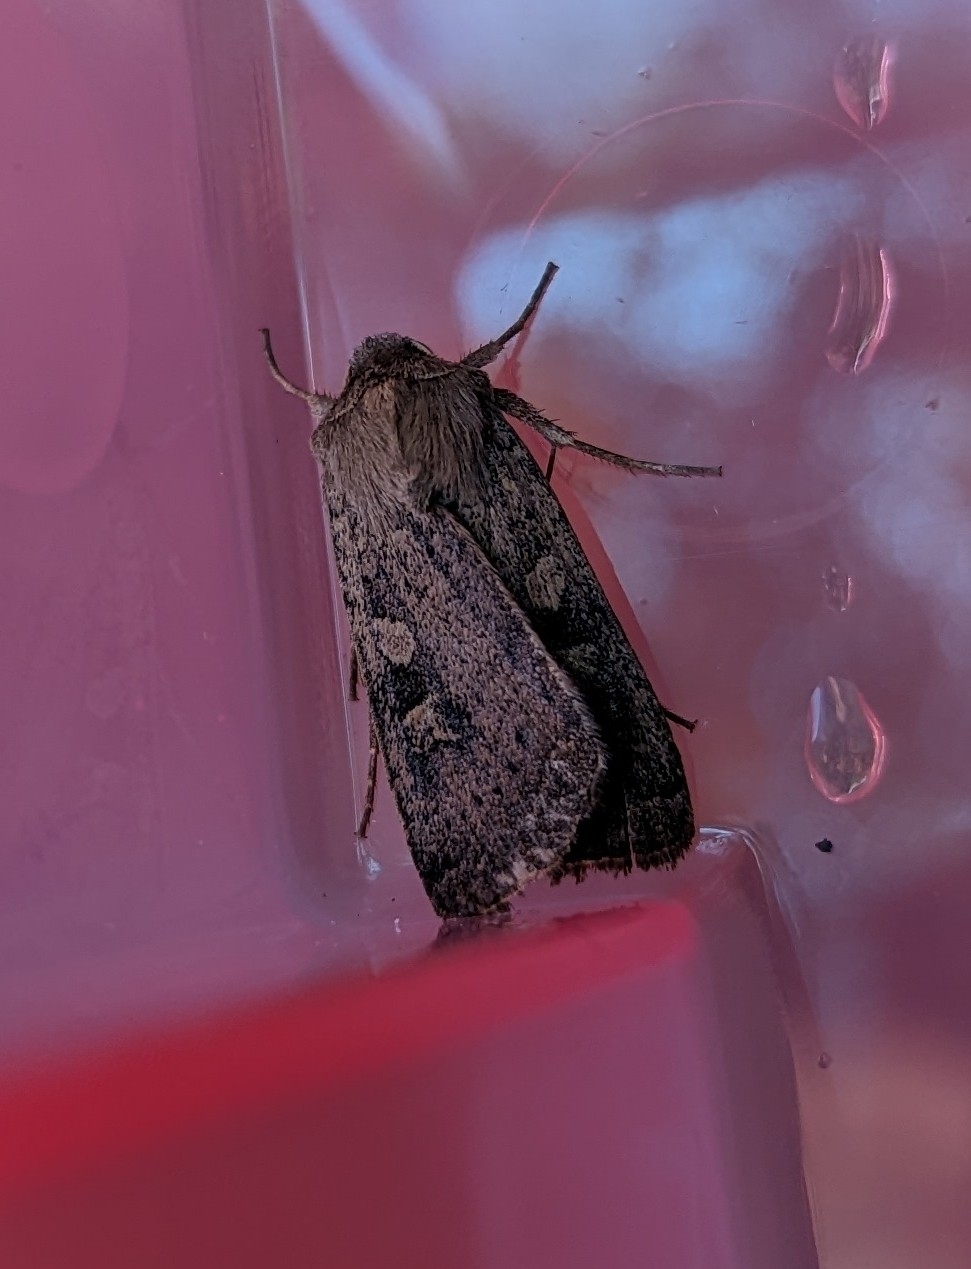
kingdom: Animalia
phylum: Arthropoda
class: Insecta
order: Lepidoptera
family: Noctuidae
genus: Xestia
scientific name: Xestia xanthographa
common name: Square-spot rustic
